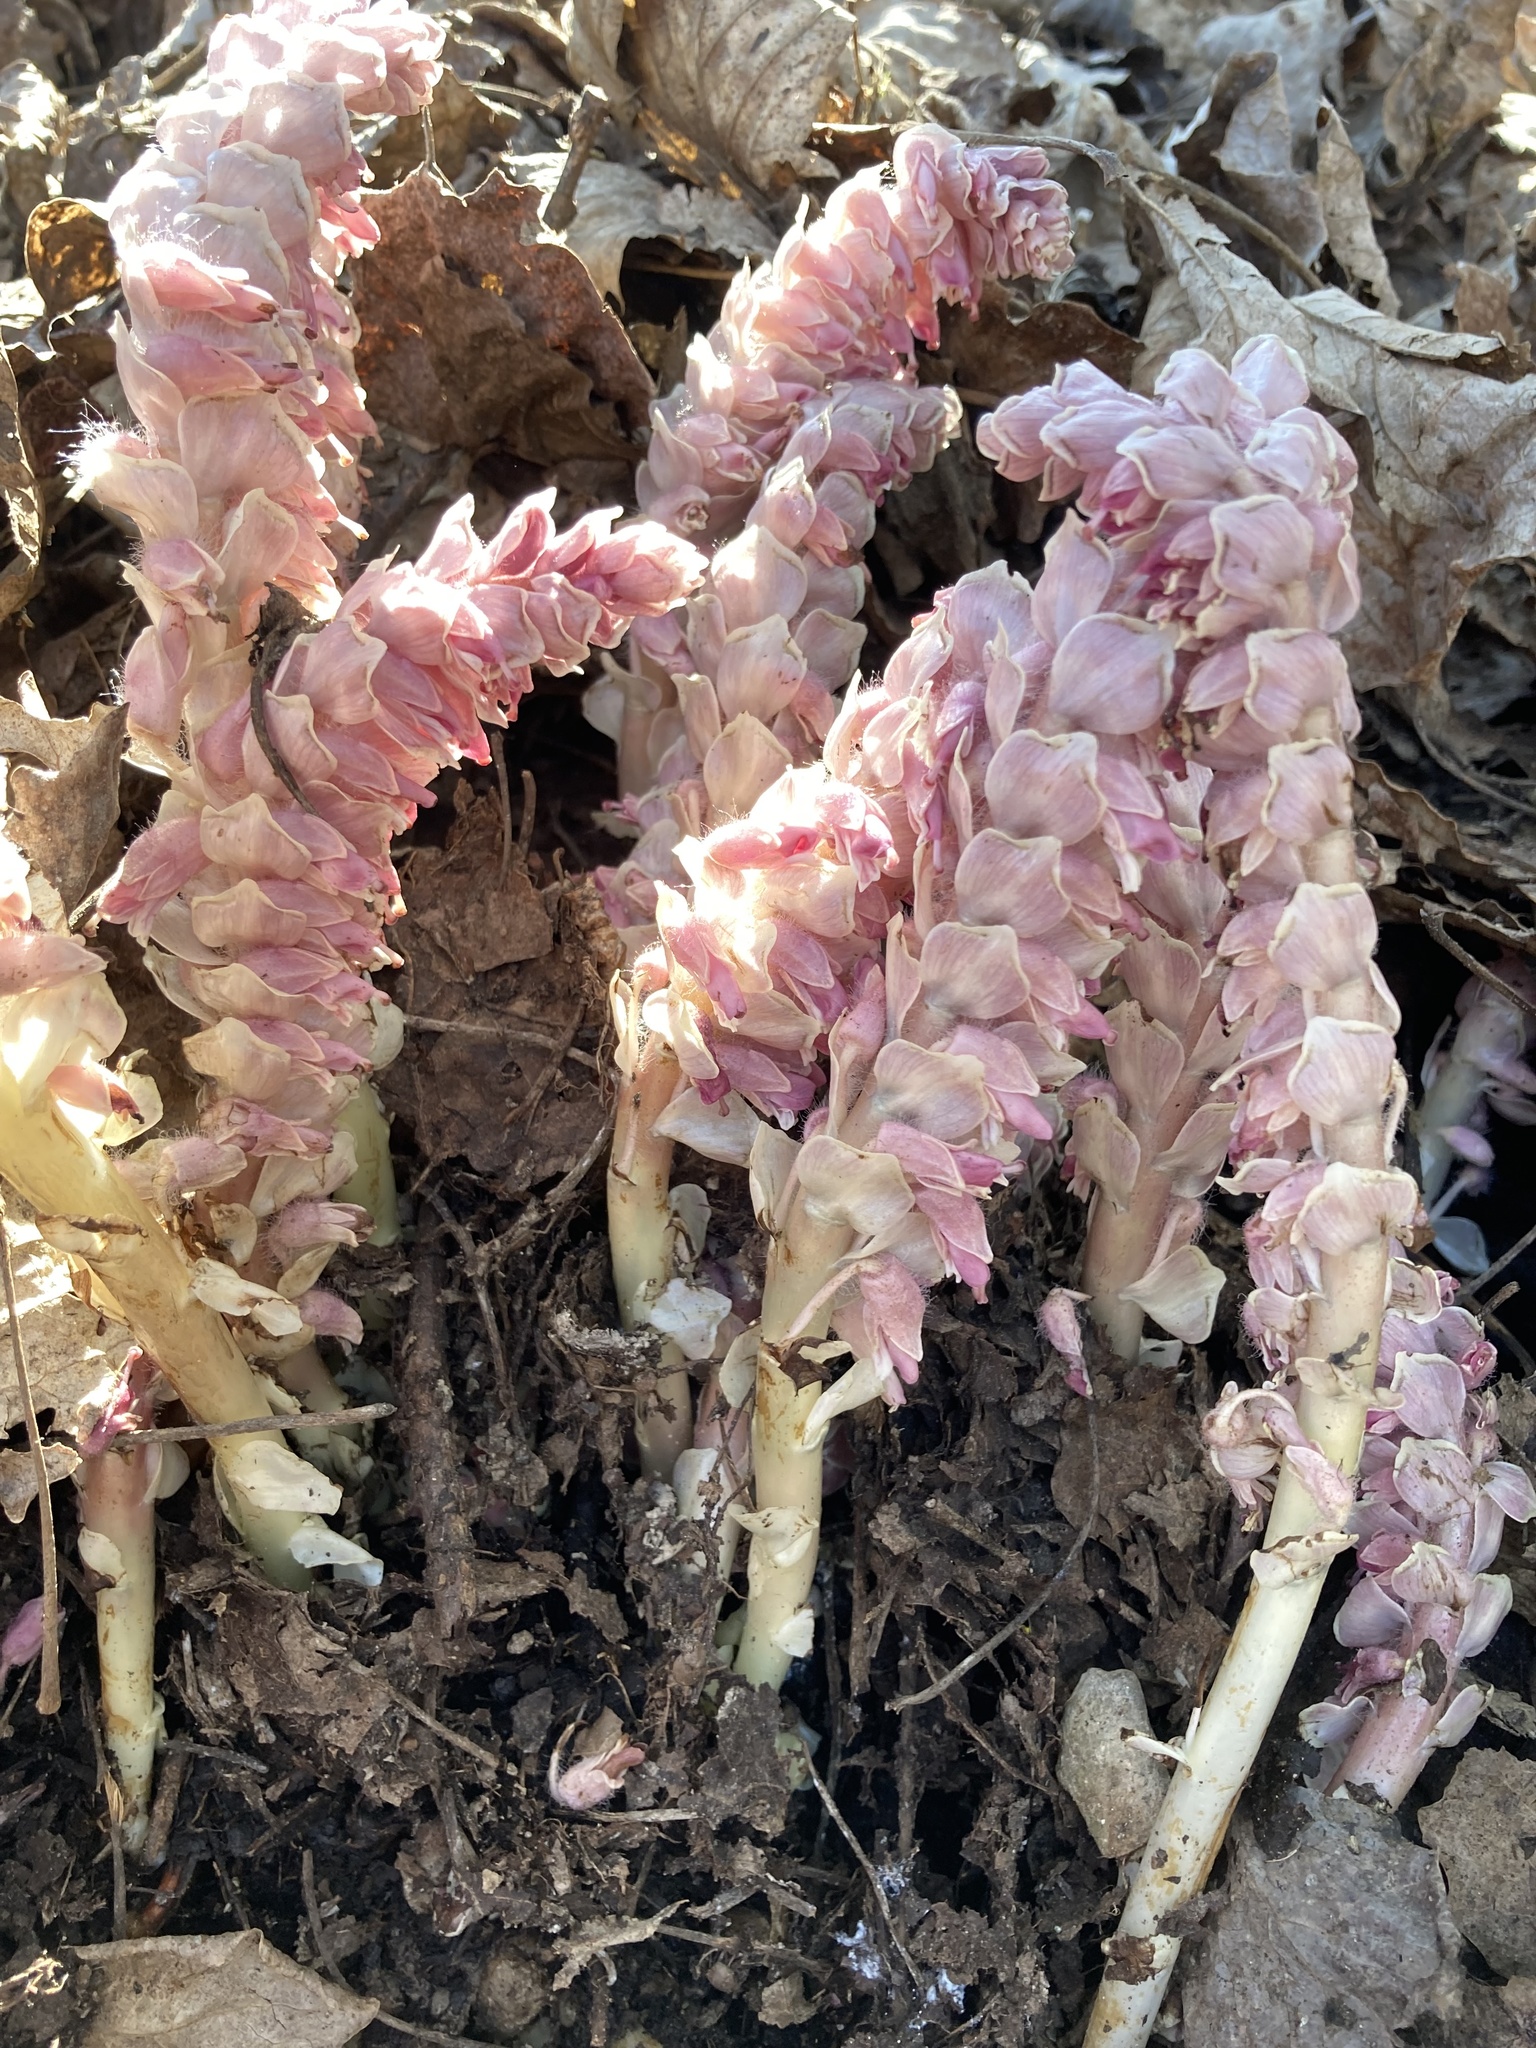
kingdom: Plantae
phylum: Tracheophyta
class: Magnoliopsida
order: Lamiales
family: Orobanchaceae
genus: Lathraea
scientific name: Lathraea squamaria
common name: Toothwort
